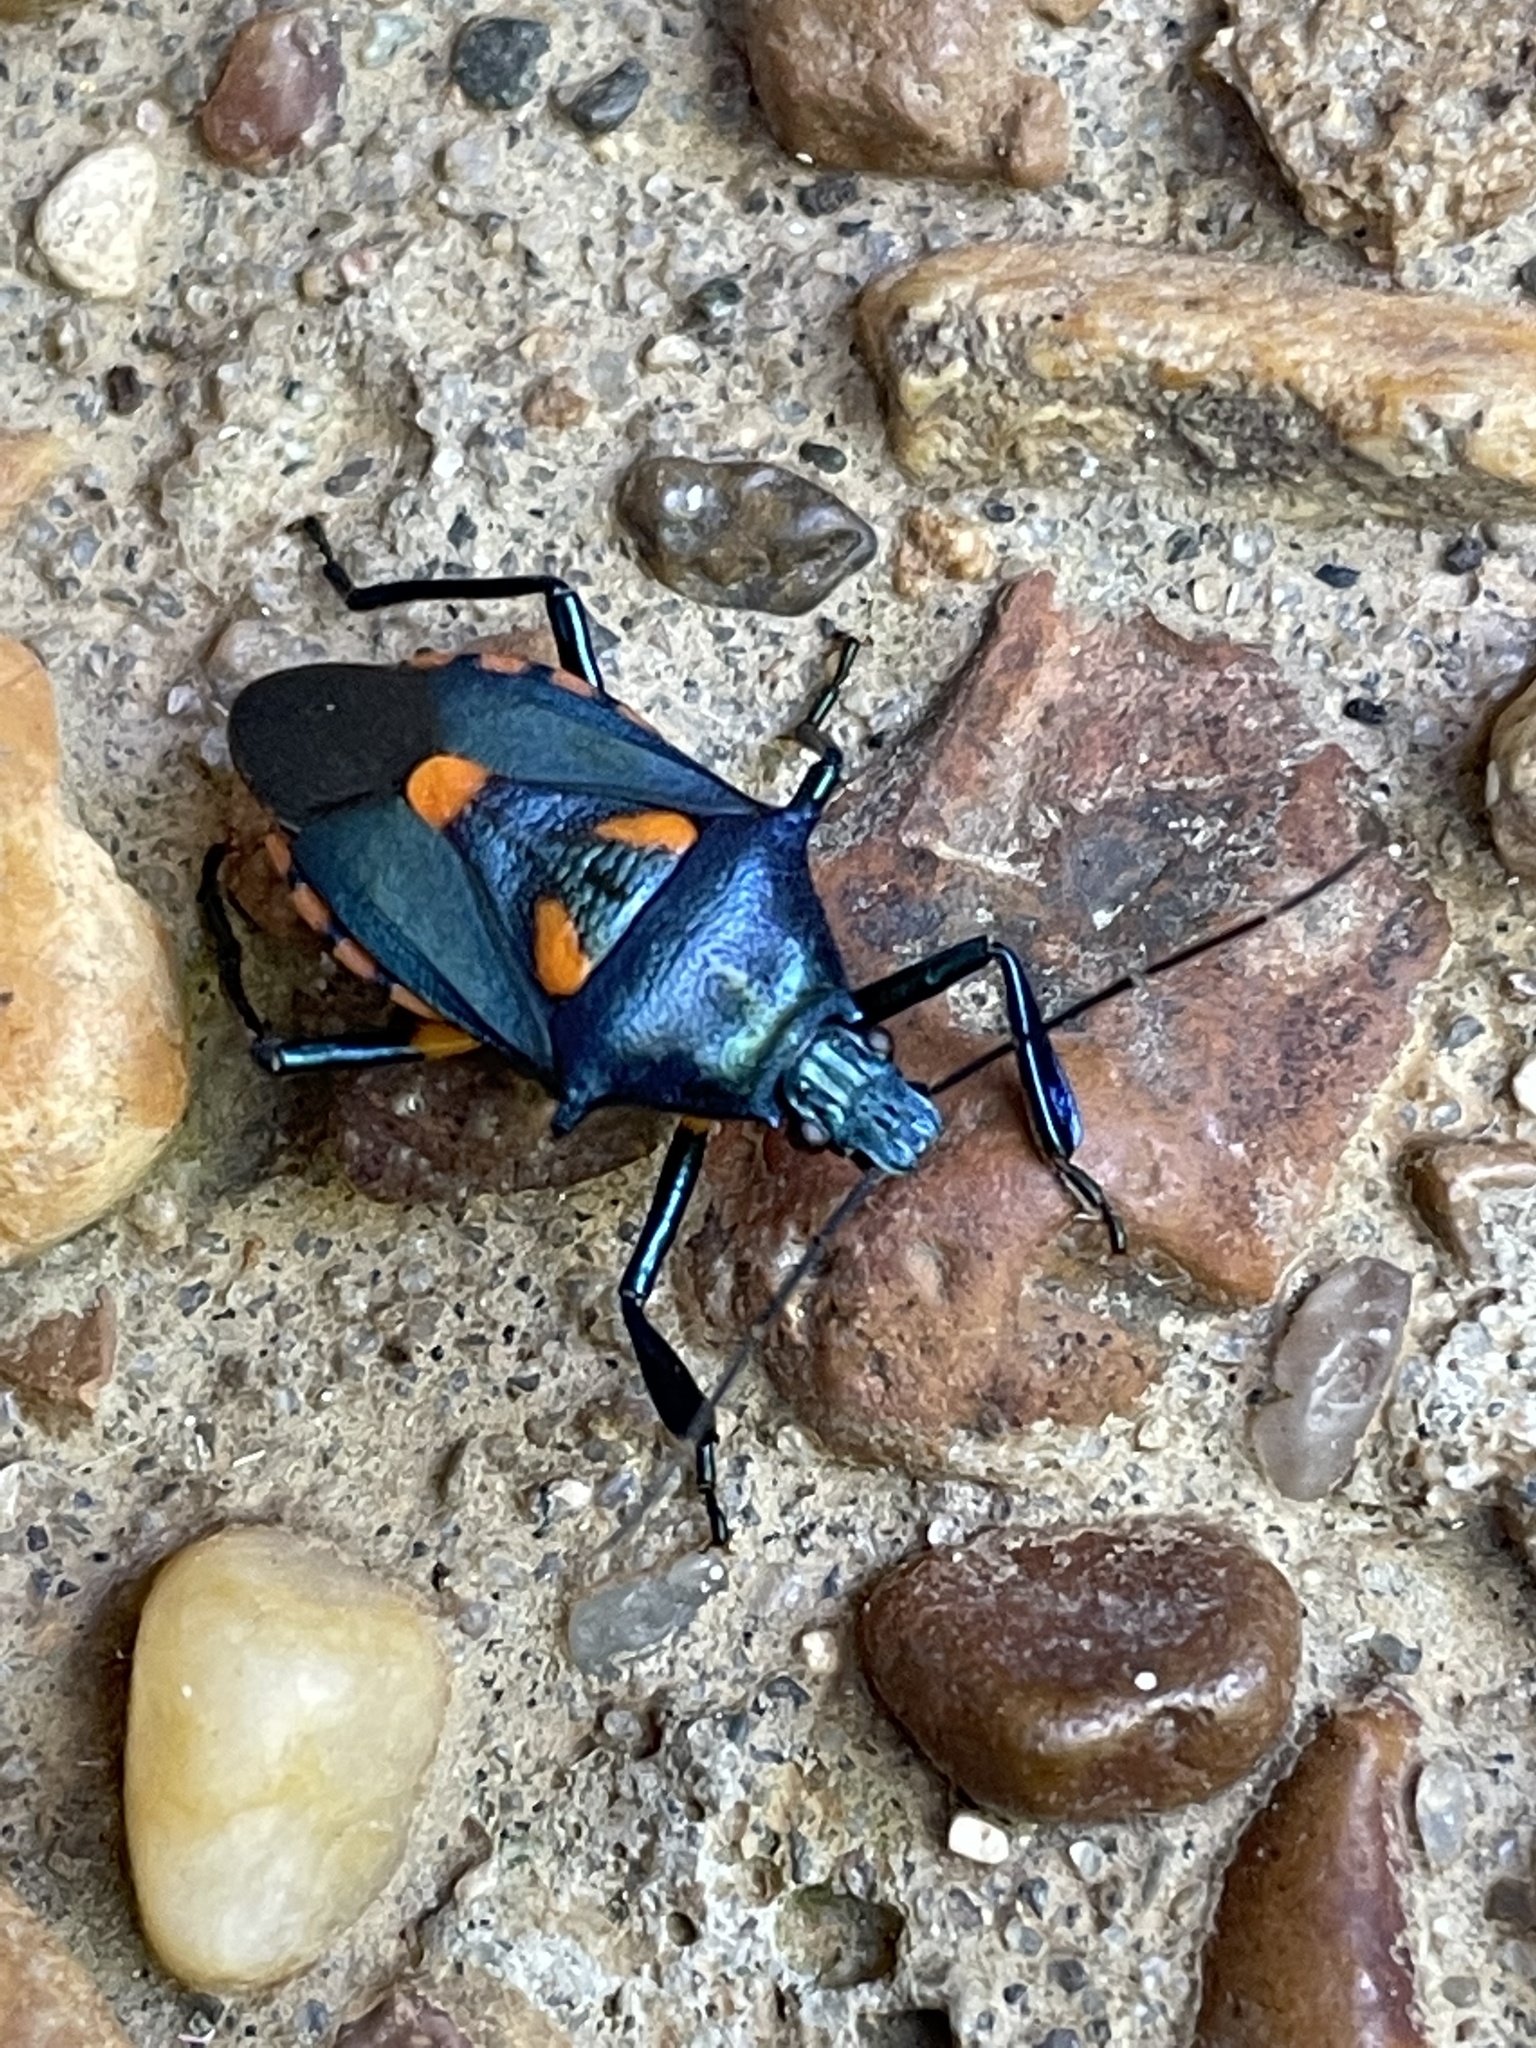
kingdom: Animalia
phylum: Arthropoda
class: Insecta
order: Hemiptera
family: Pentatomidae
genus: Euthyrhynchus
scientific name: Euthyrhynchus floridanus
